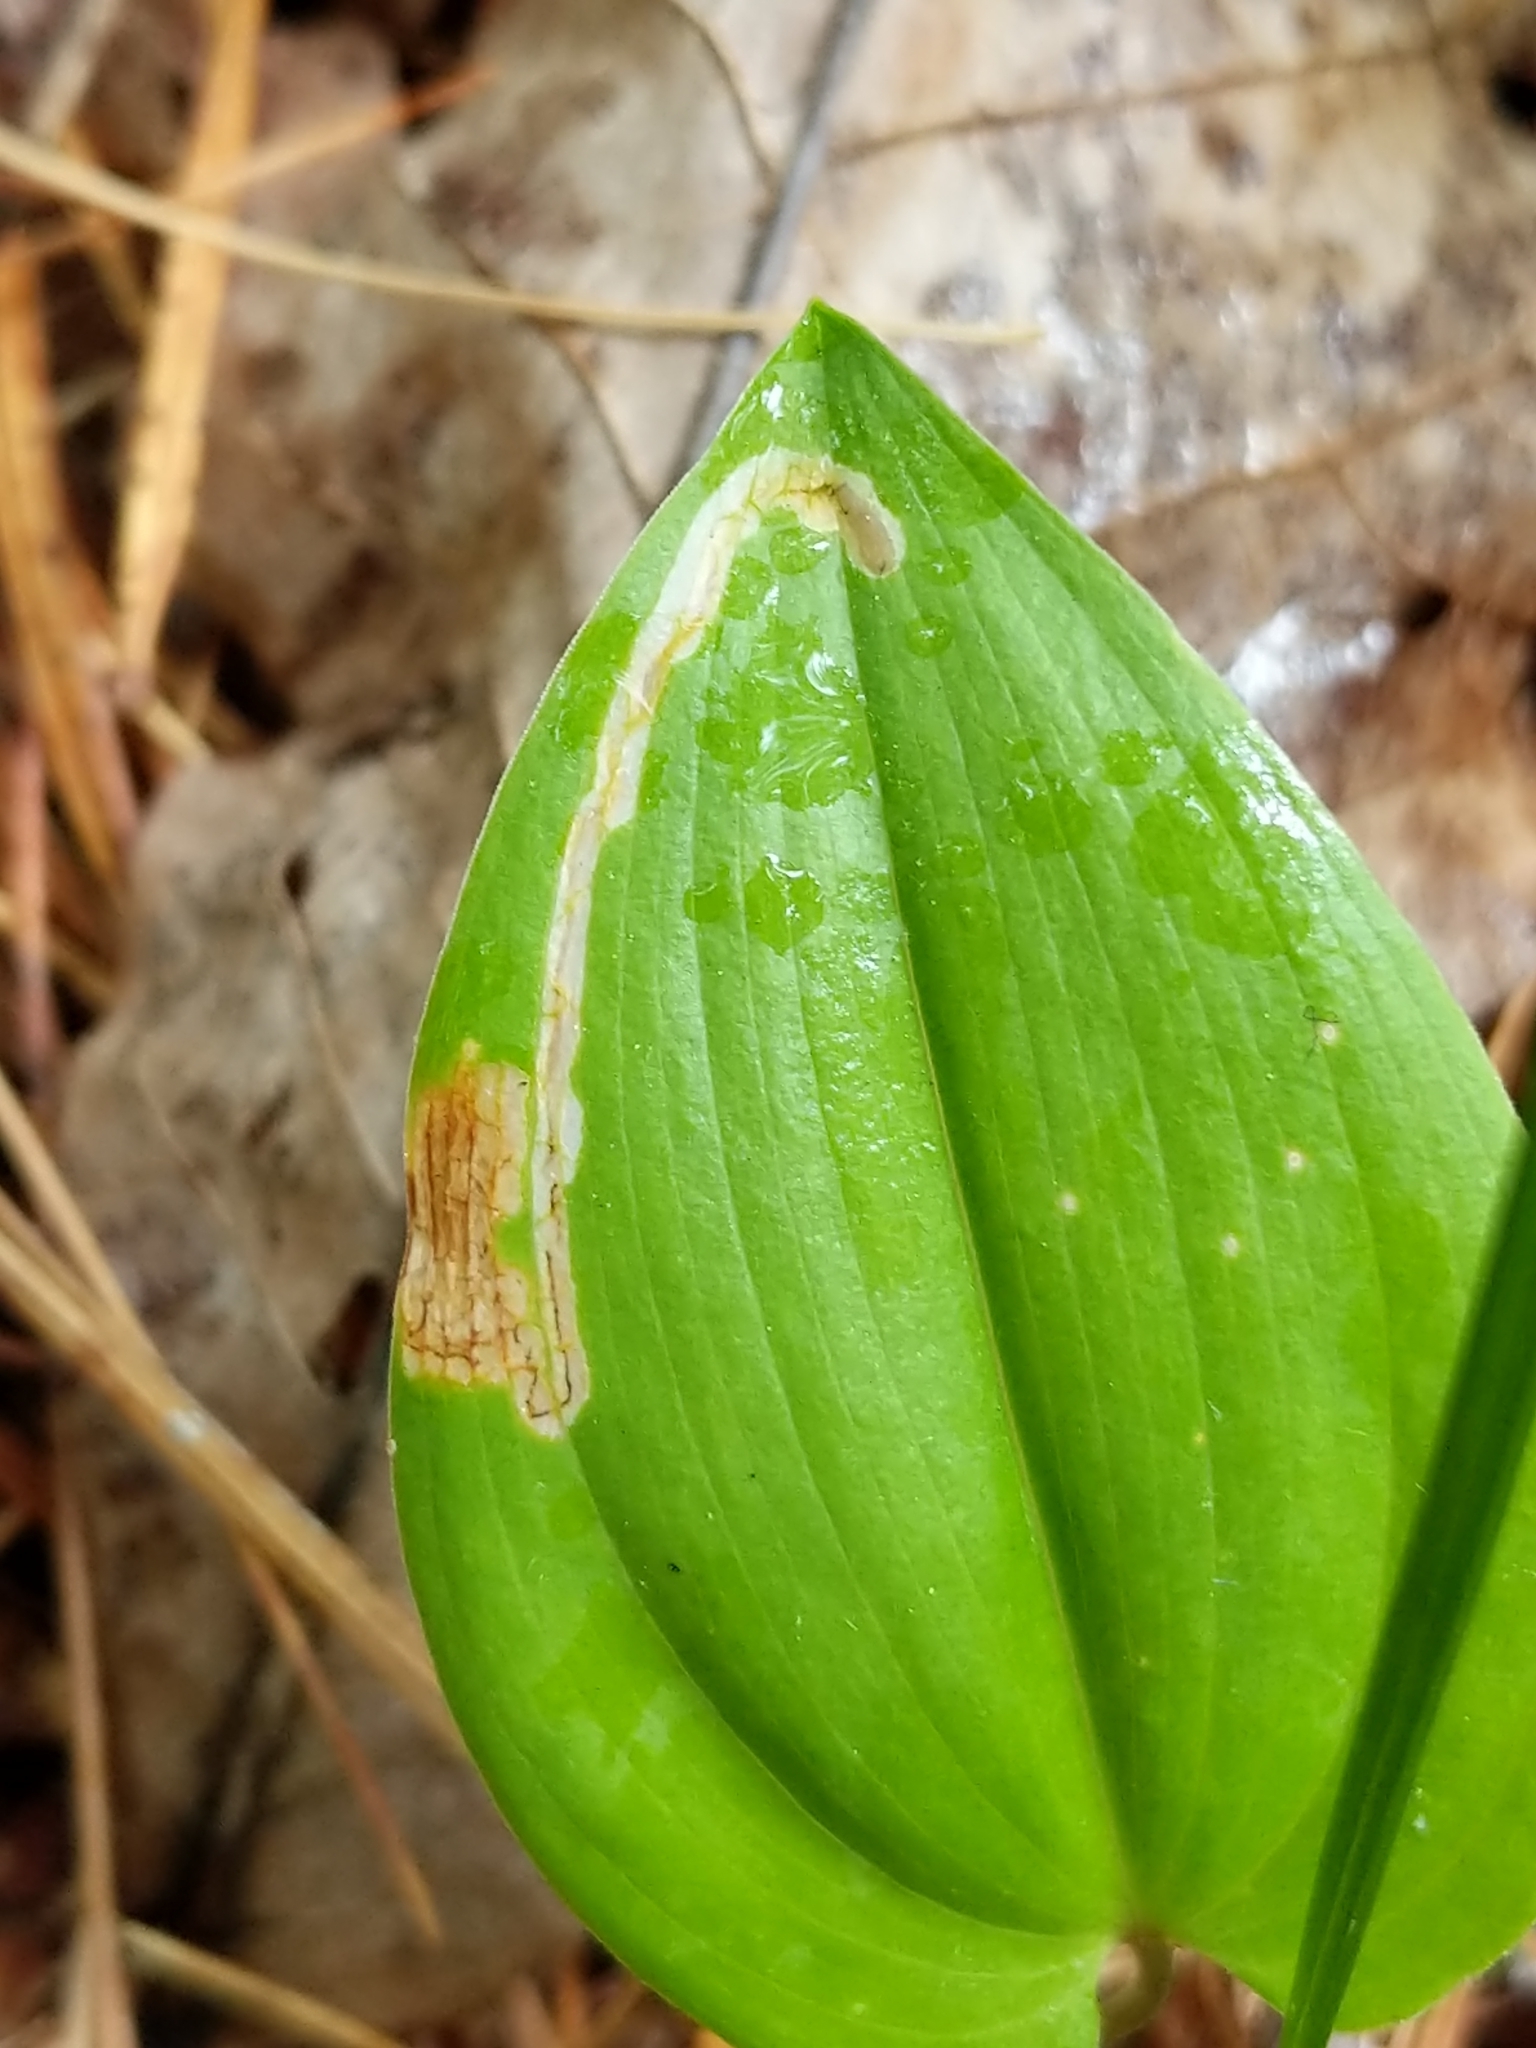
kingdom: Animalia
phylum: Arthropoda
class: Insecta
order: Diptera
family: Agromyzidae
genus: Liriomyza
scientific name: Liriomyza smilacinae
